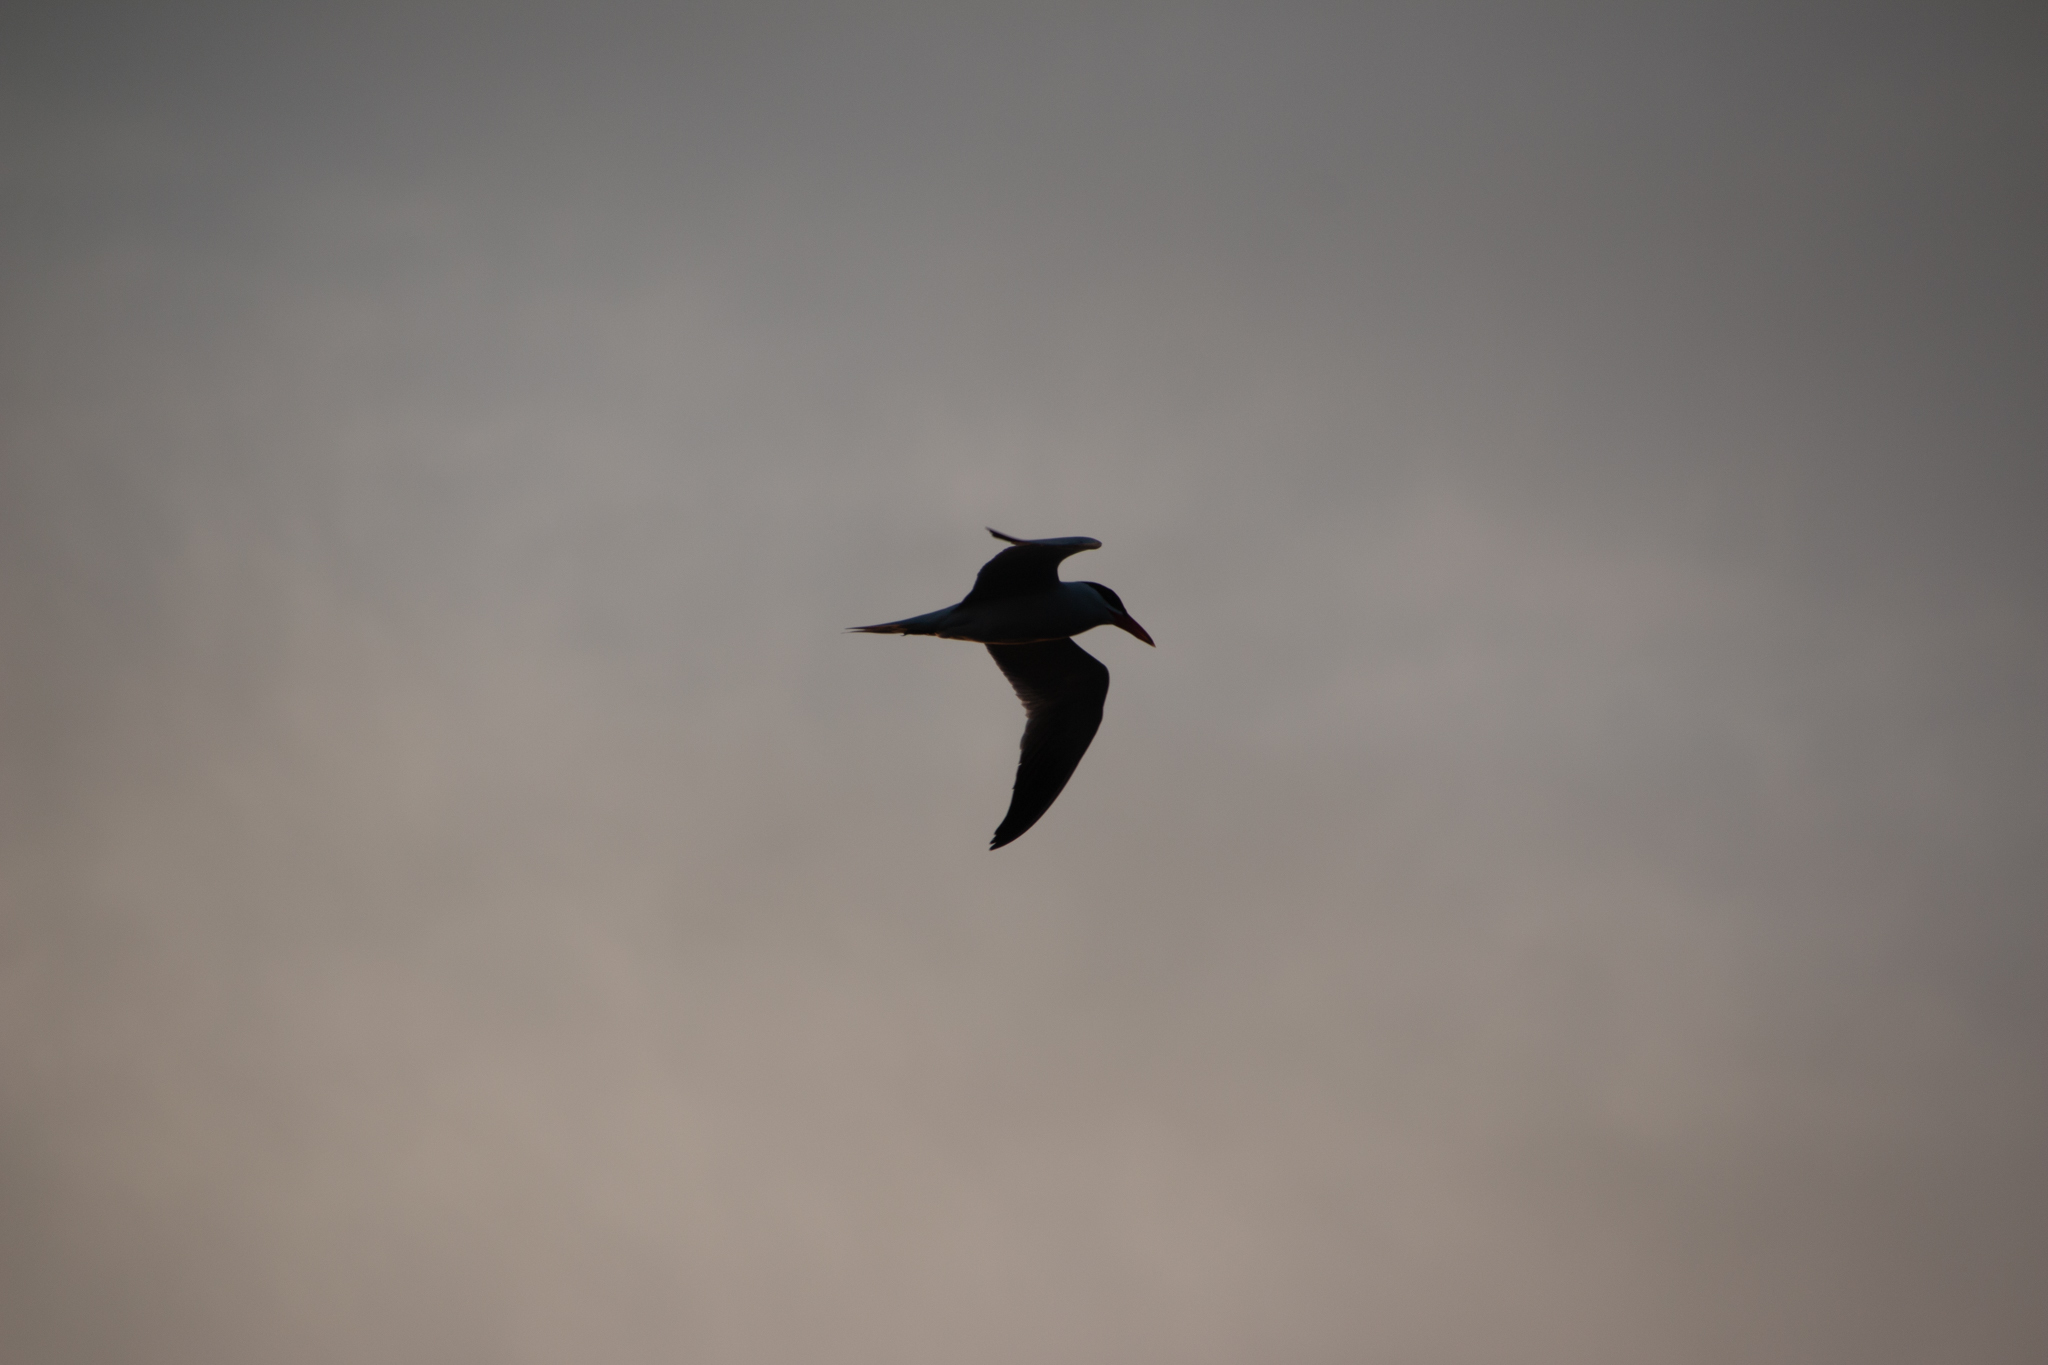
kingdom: Animalia
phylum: Chordata
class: Aves
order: Charadriiformes
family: Laridae
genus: Hydroprogne
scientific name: Hydroprogne caspia
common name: Caspian tern
